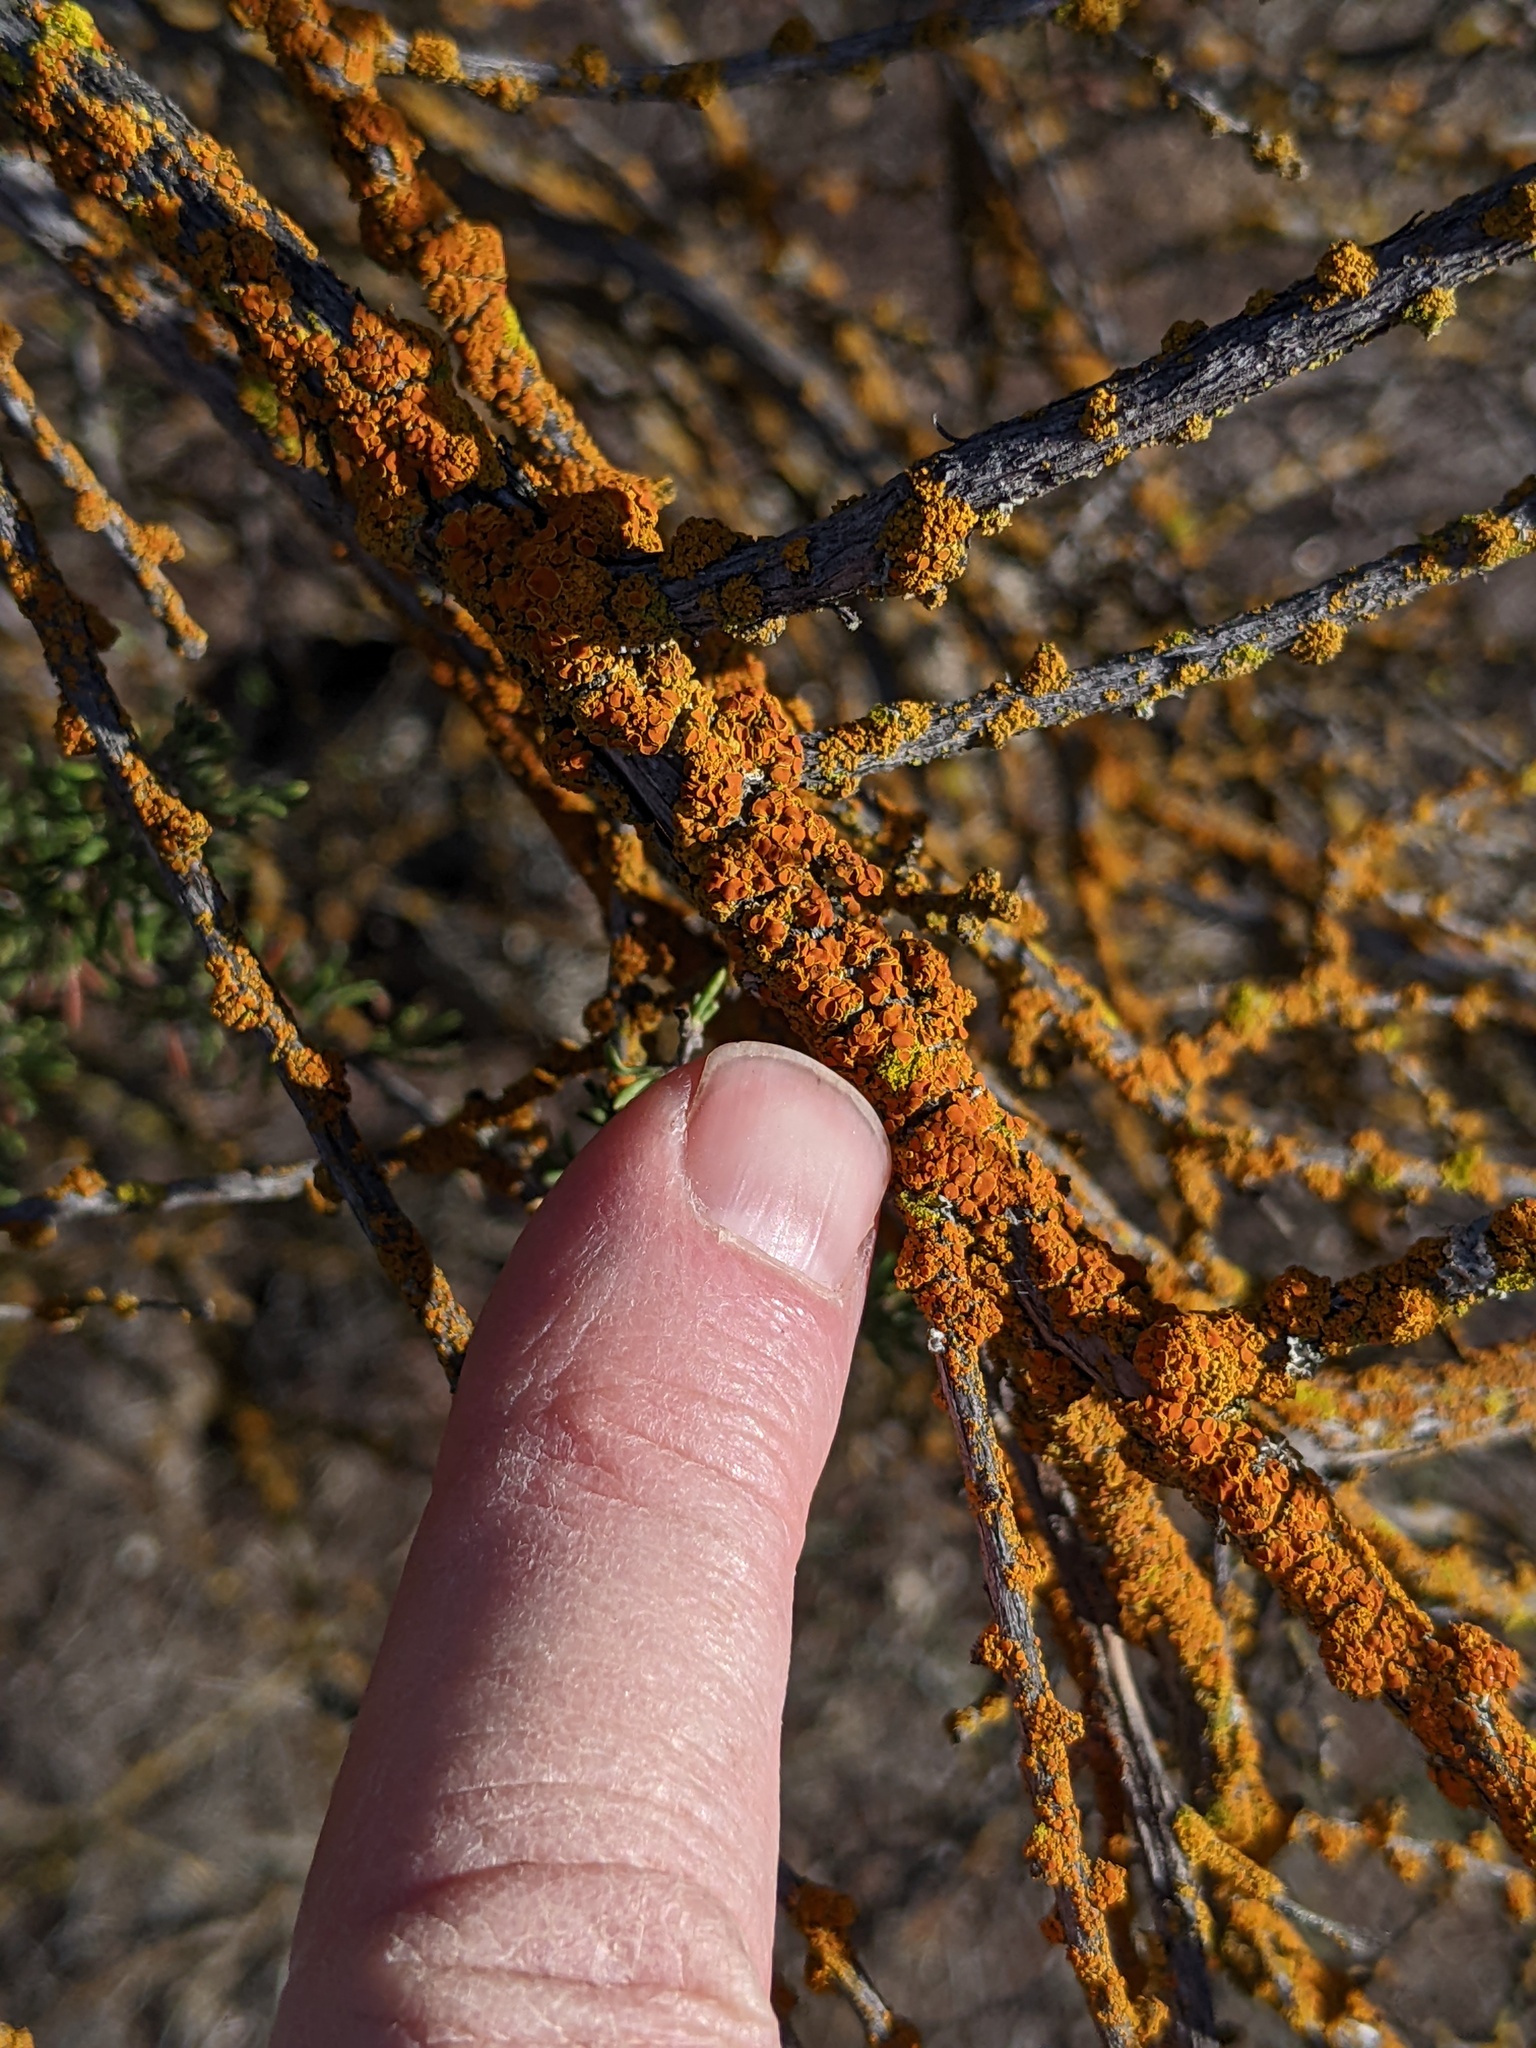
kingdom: Fungi
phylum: Ascomycota
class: Lecanoromycetes
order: Teloschistales
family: Teloschistaceae
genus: Polycauliona
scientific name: Polycauliona polycarpa
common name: Pin-cushion sunburst lichen
